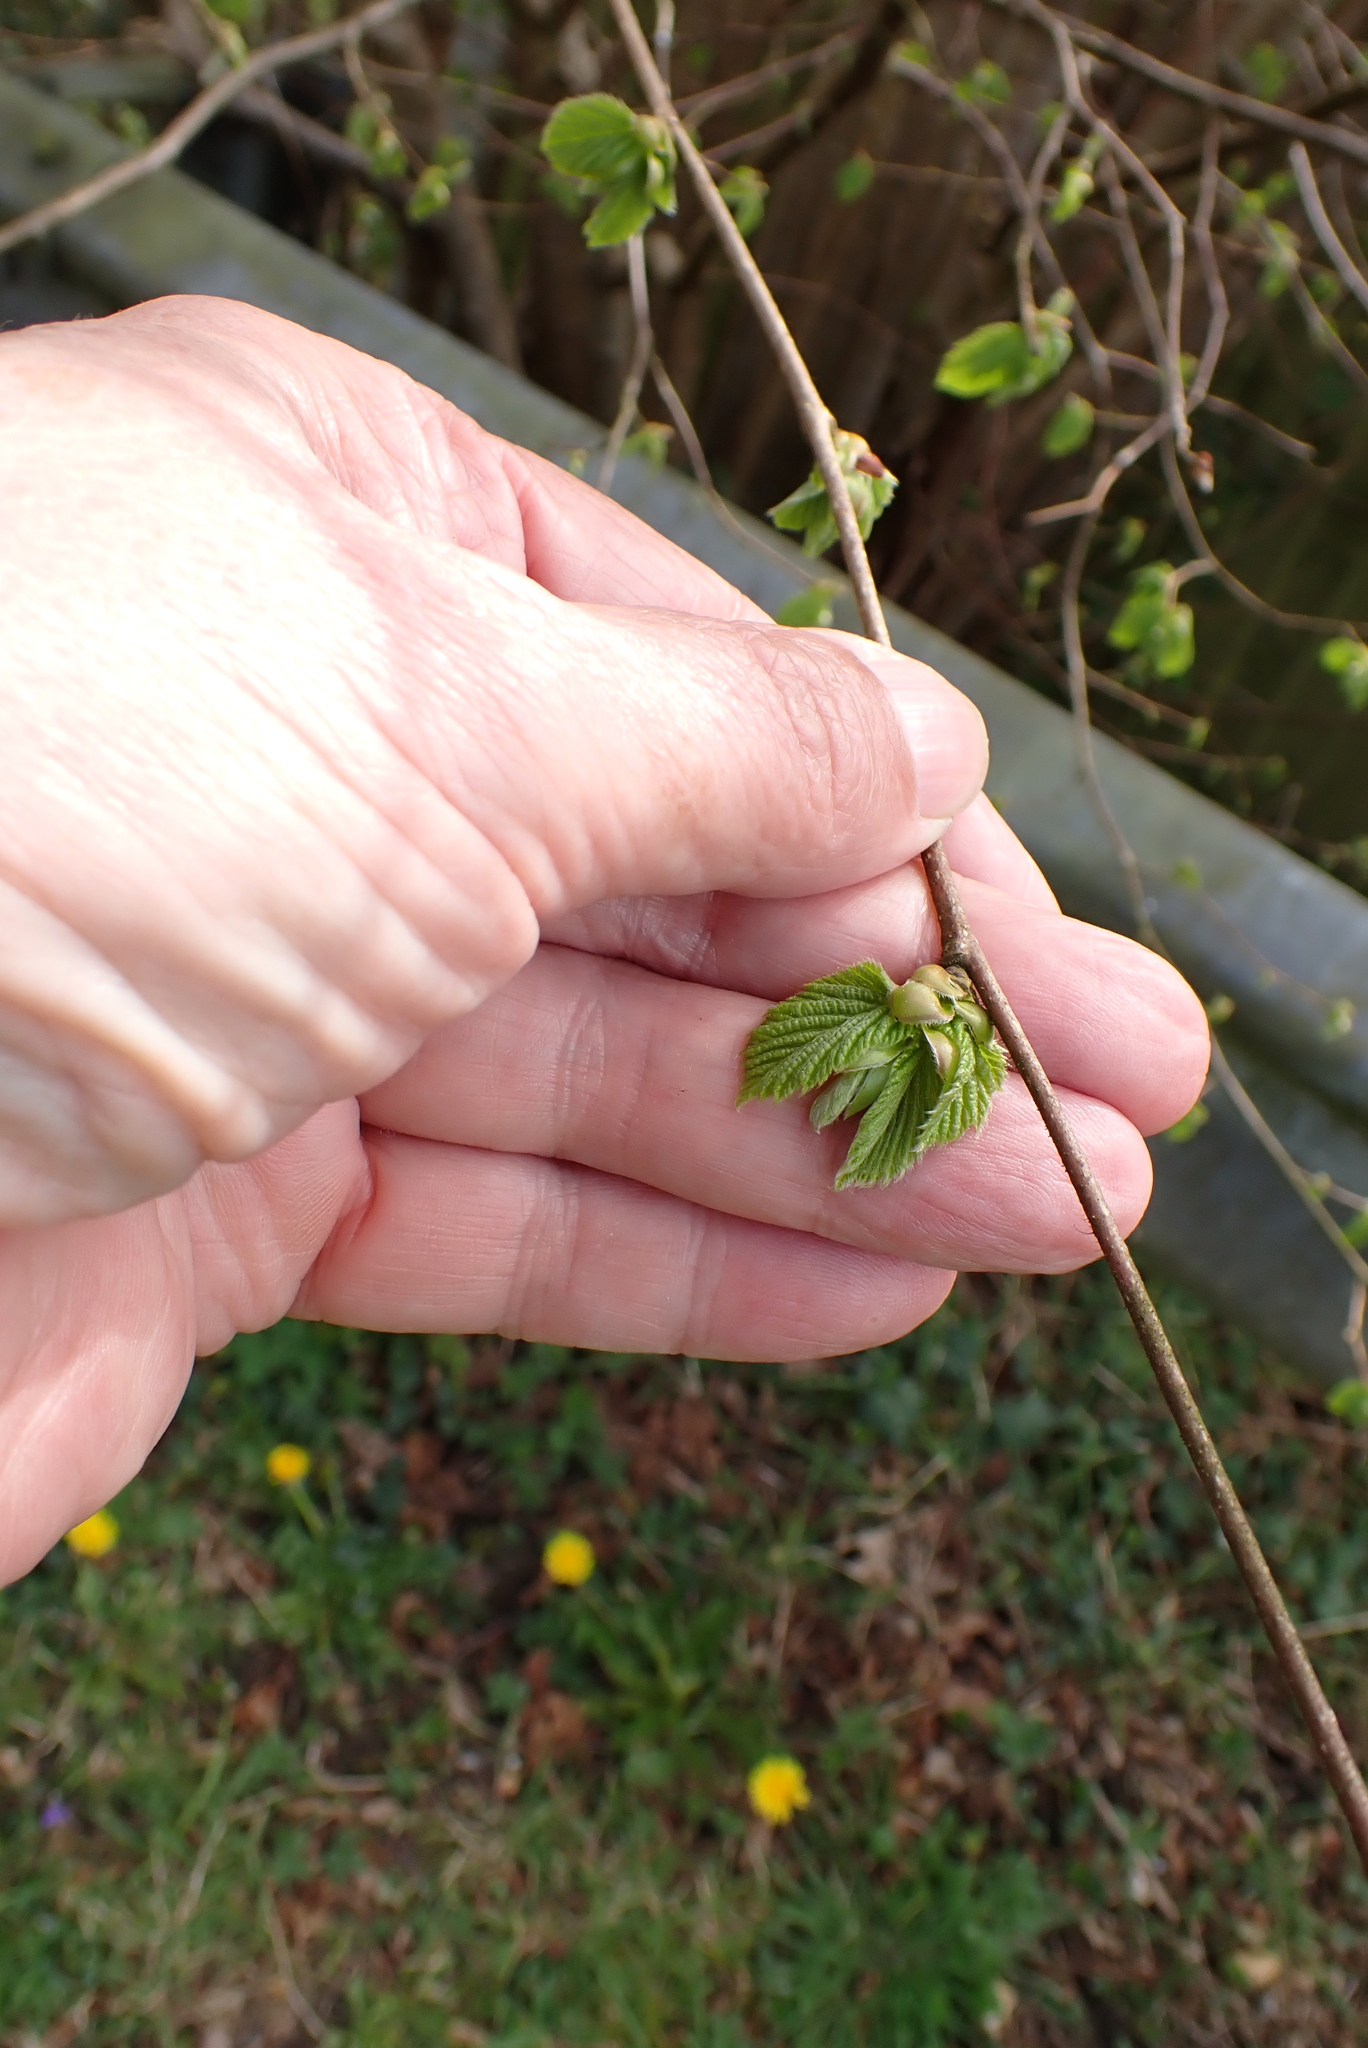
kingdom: Plantae
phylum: Tracheophyta
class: Magnoliopsida
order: Fagales
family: Betulaceae
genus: Corylus
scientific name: Corylus avellana
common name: European hazel
